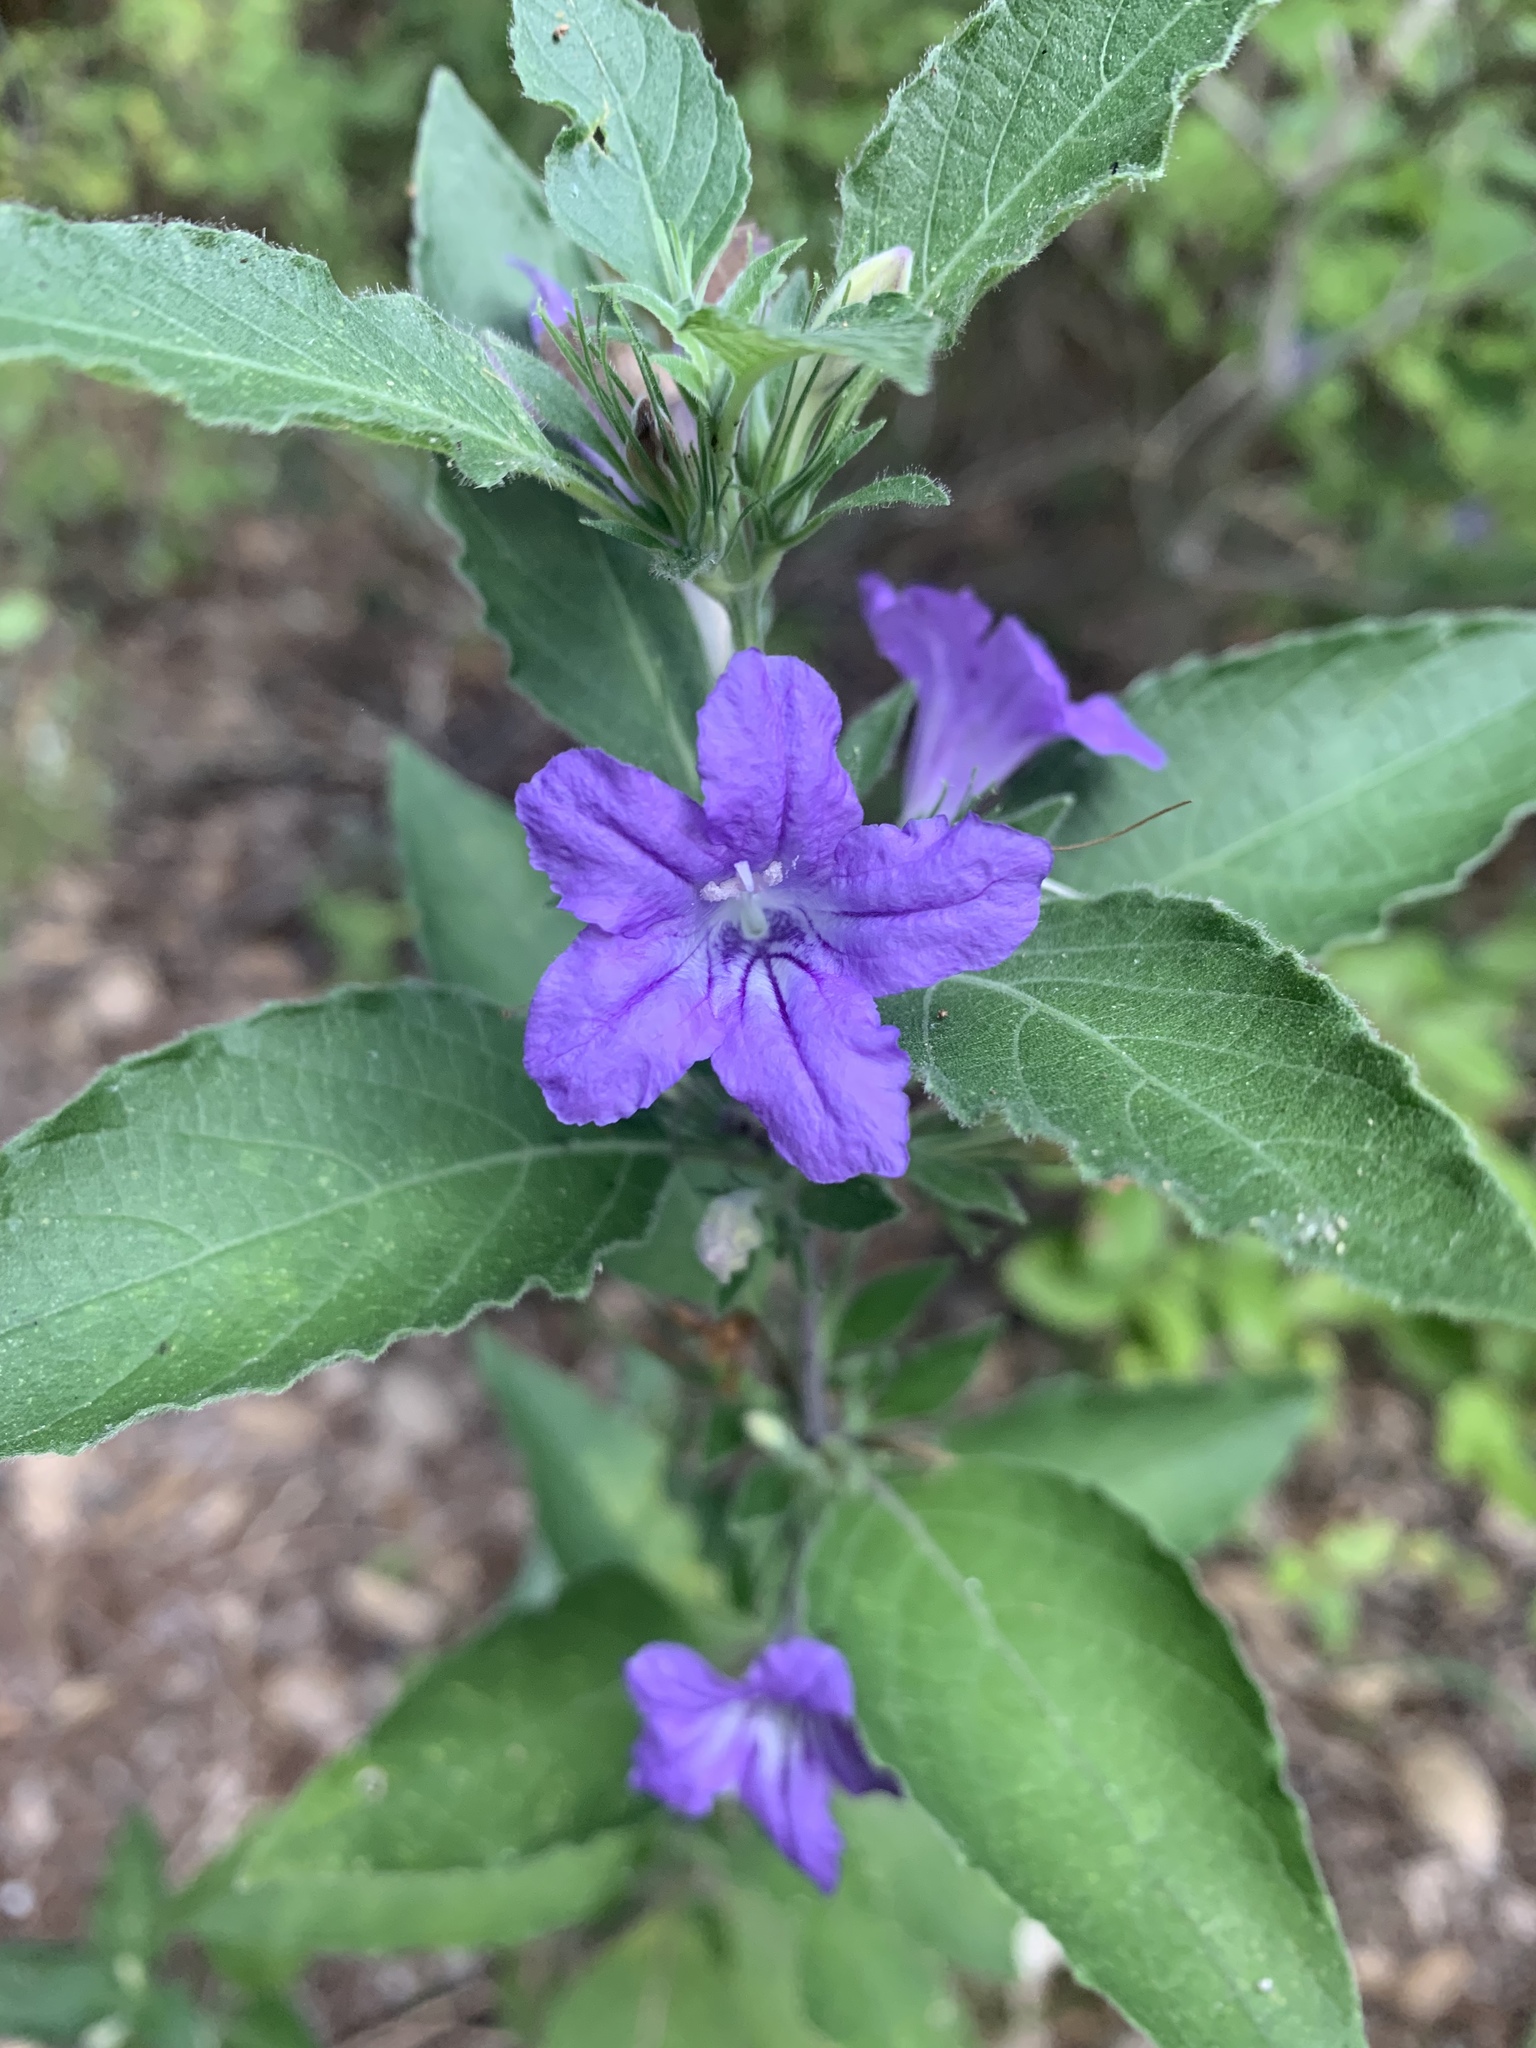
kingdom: Plantae
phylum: Tracheophyta
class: Magnoliopsida
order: Lamiales
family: Acanthaceae
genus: Ruellia
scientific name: Ruellia drummondiana
